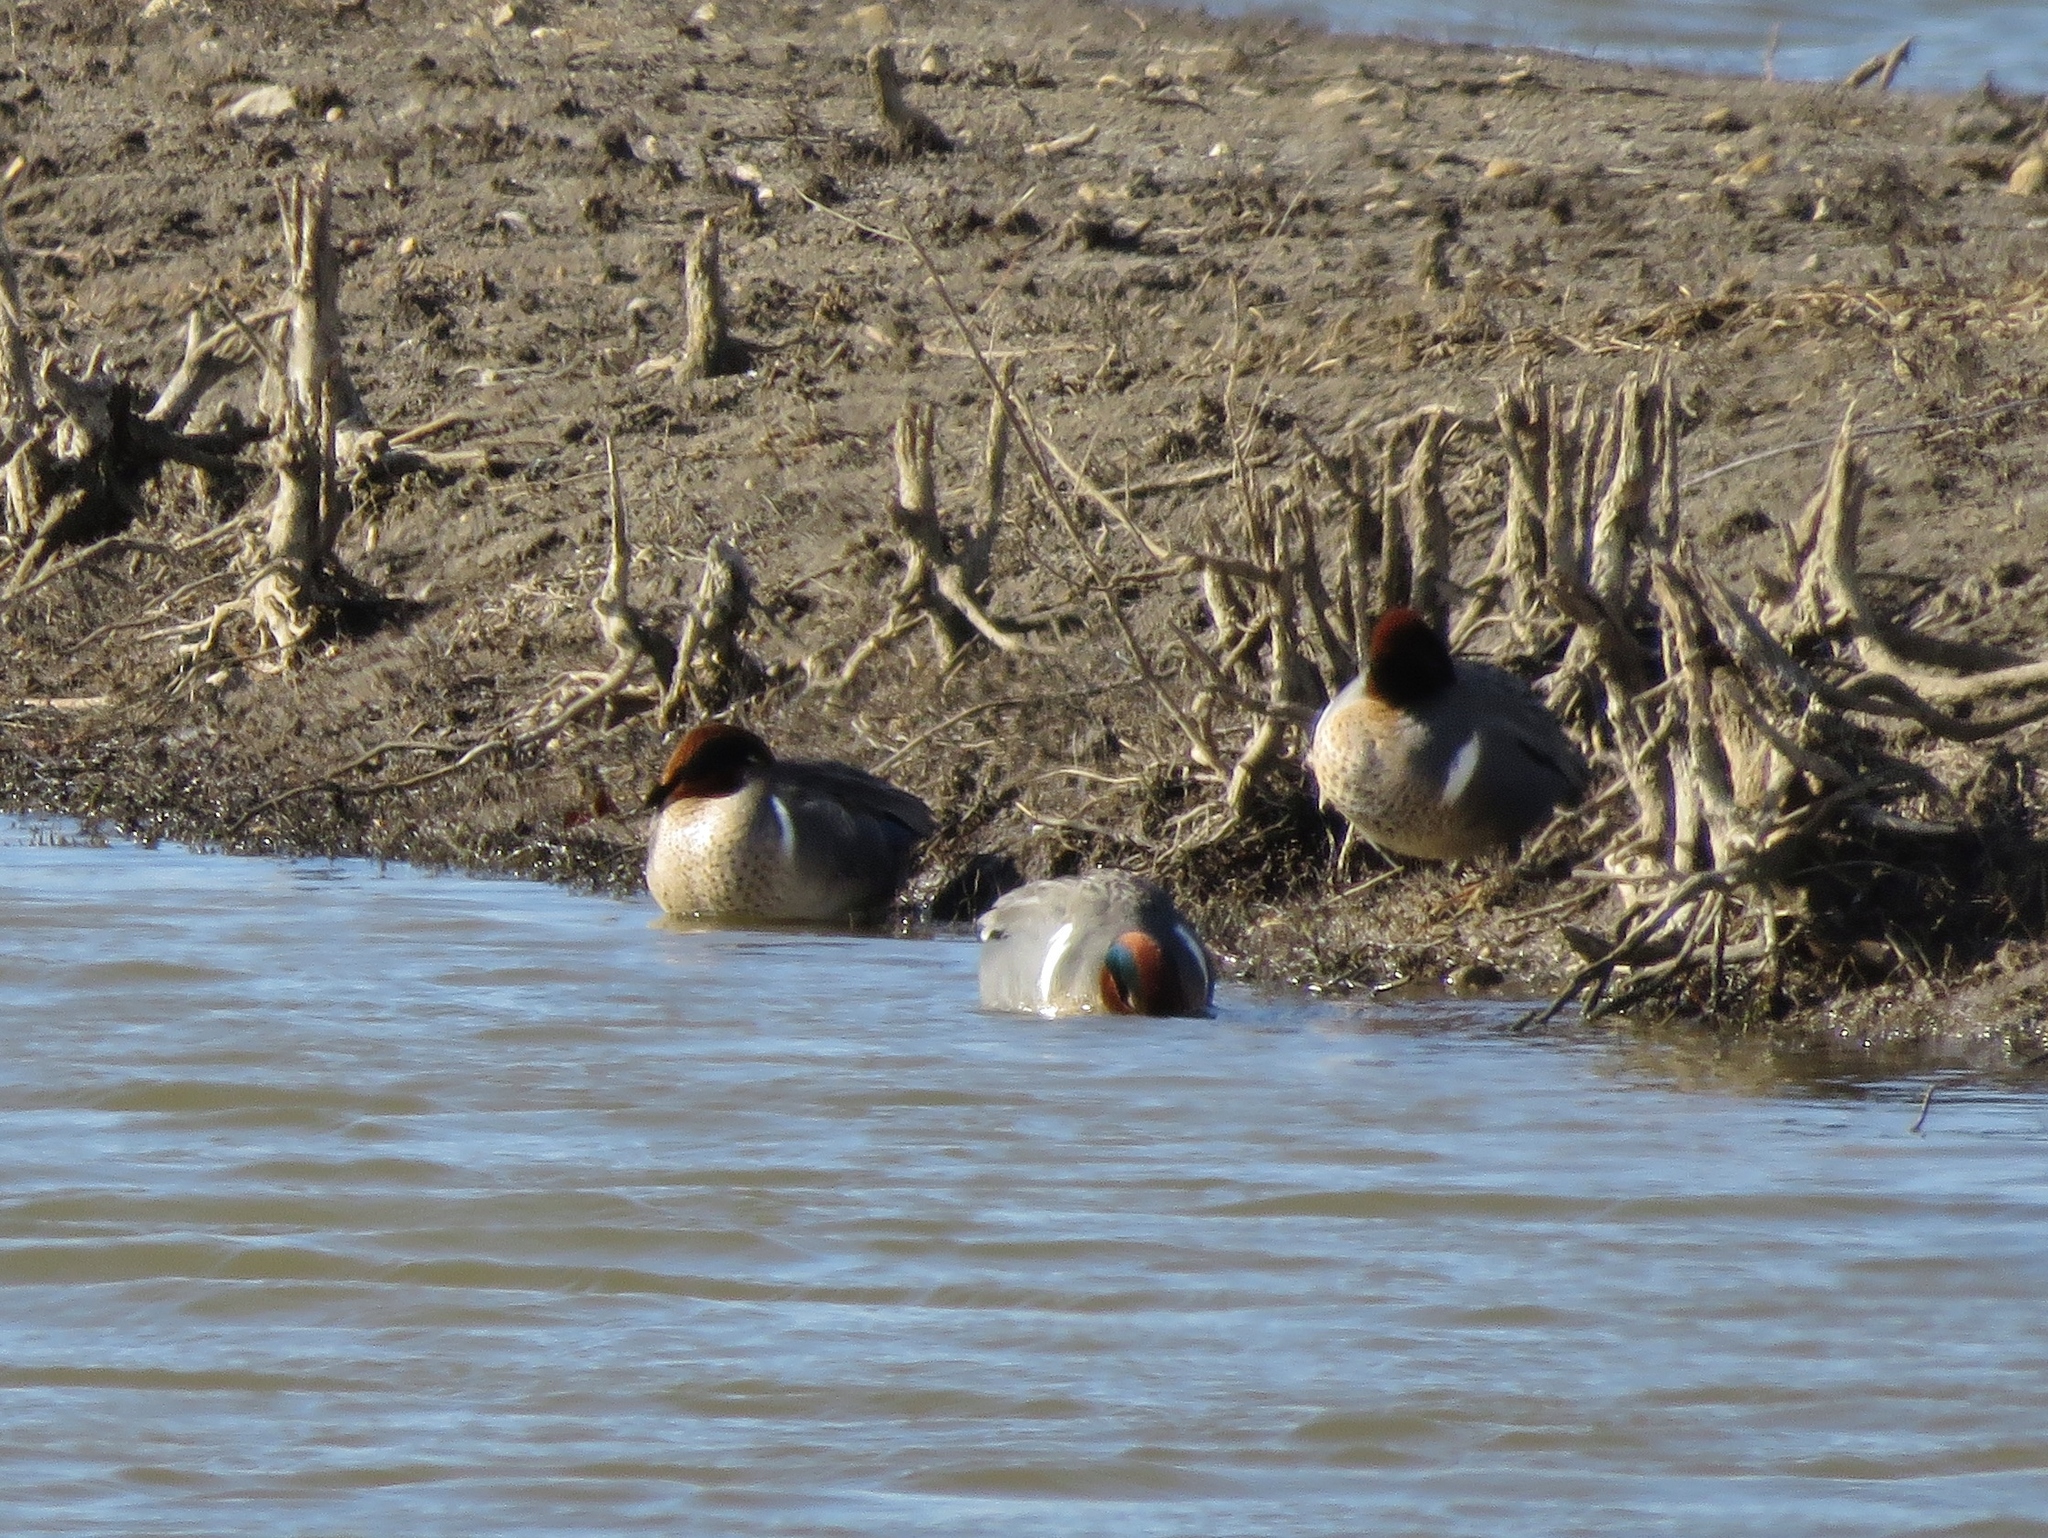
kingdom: Animalia
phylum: Chordata
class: Aves
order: Anseriformes
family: Anatidae
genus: Anas
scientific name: Anas crecca
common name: Eurasian teal
